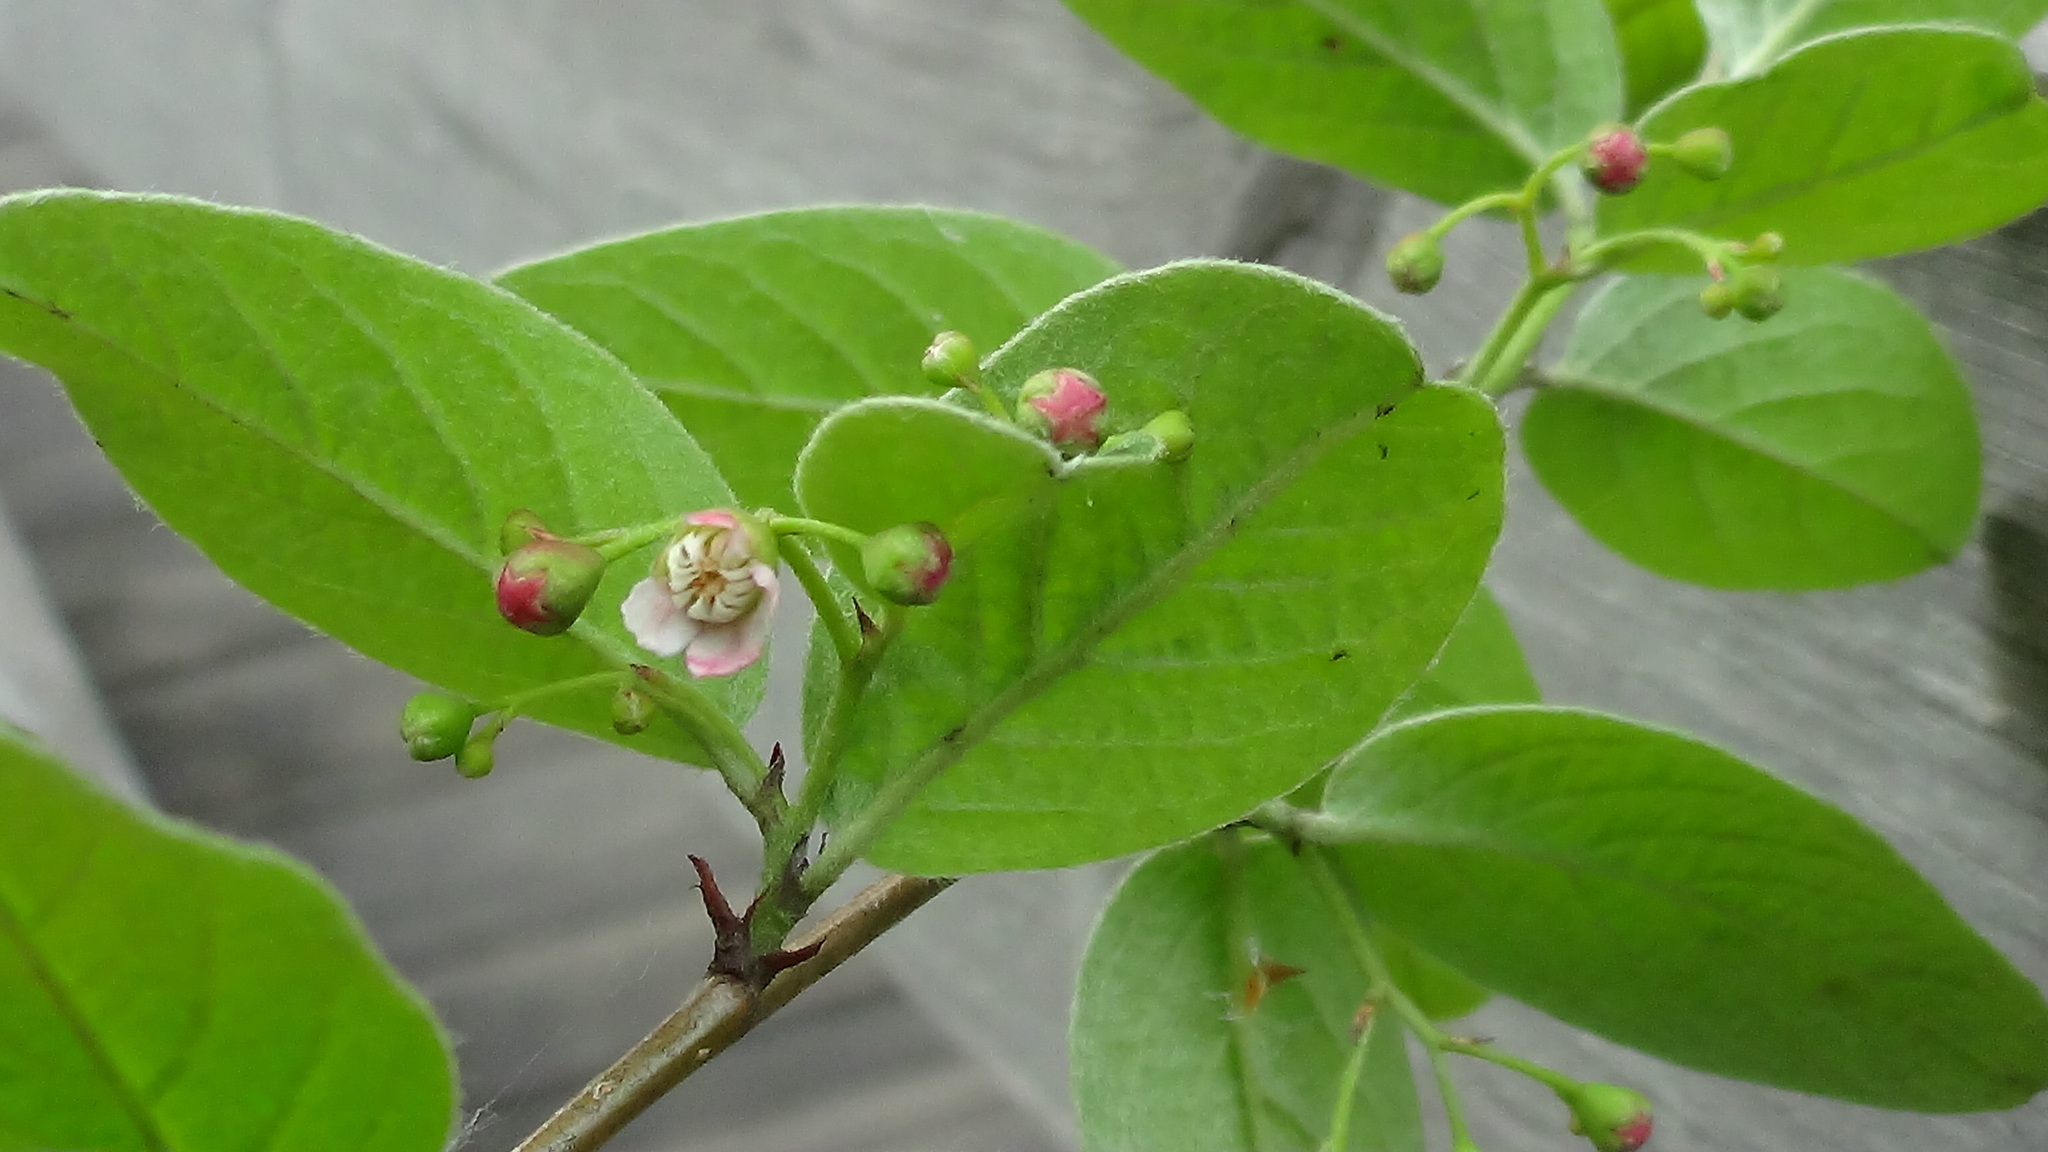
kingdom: Plantae
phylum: Tracheophyta
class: Magnoliopsida
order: Rosales
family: Rosaceae
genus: Cotoneaster
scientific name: Cotoneaster melanocarpus
